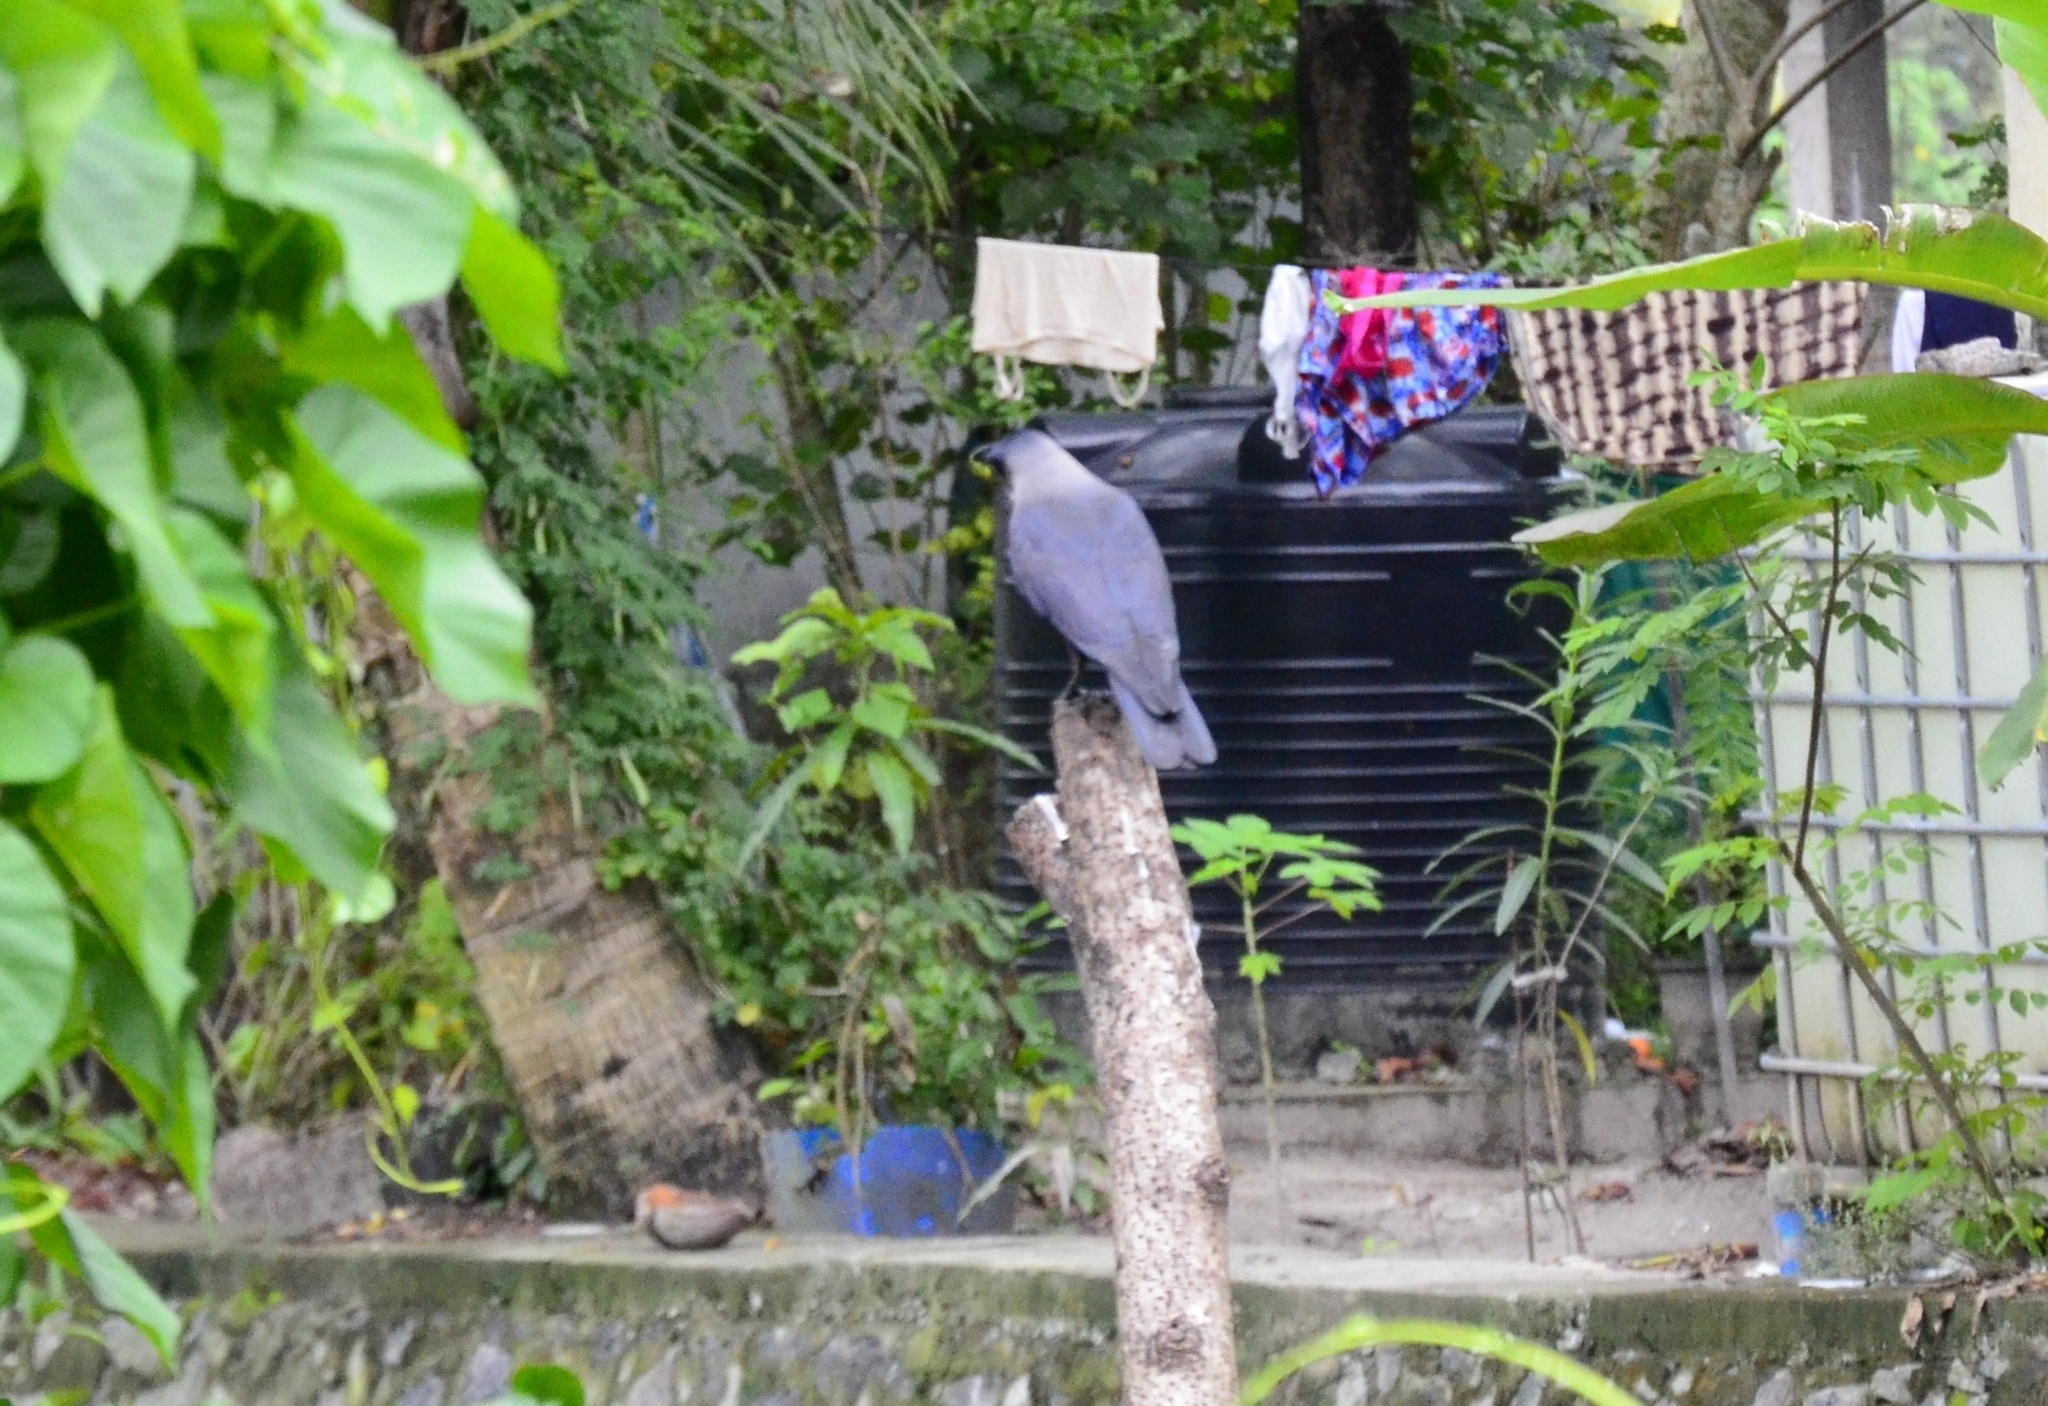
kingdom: Animalia
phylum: Chordata
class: Aves
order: Passeriformes
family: Corvidae
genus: Corvus
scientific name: Corvus splendens
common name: House crow
